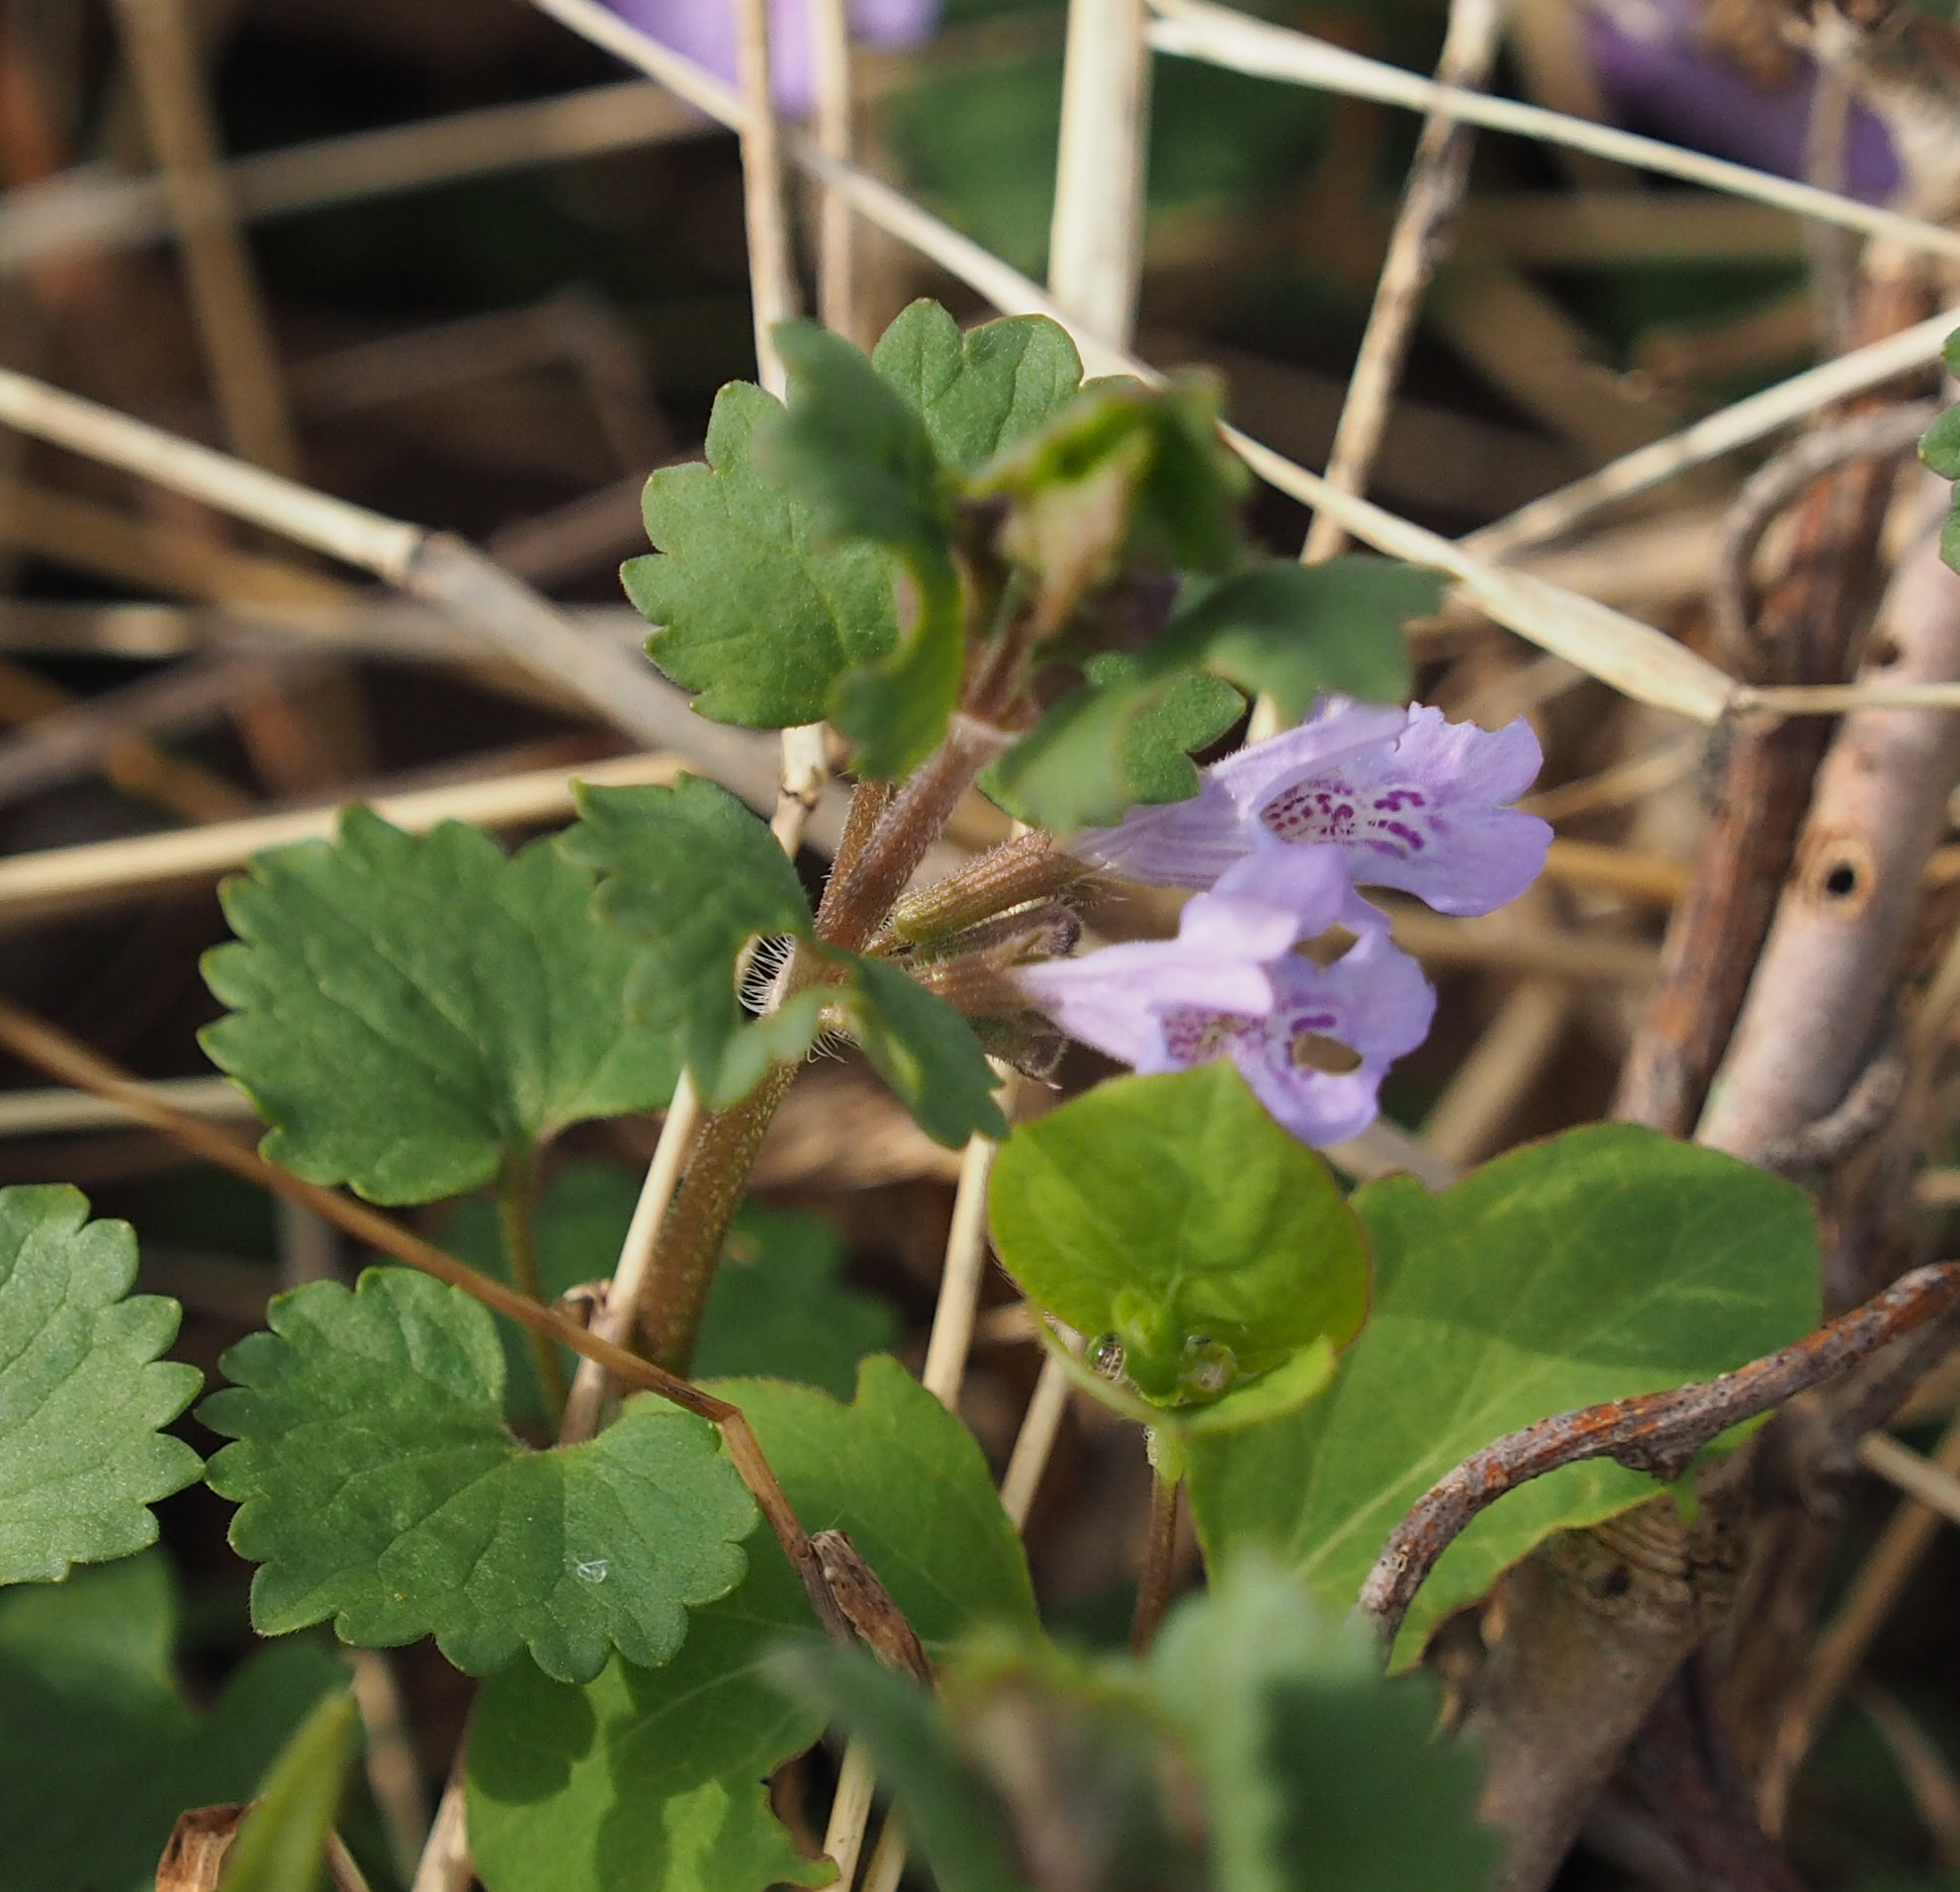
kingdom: Plantae
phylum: Tracheophyta
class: Magnoliopsida
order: Lamiales
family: Lamiaceae
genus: Glechoma
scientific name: Glechoma hederacea
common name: Ground ivy
